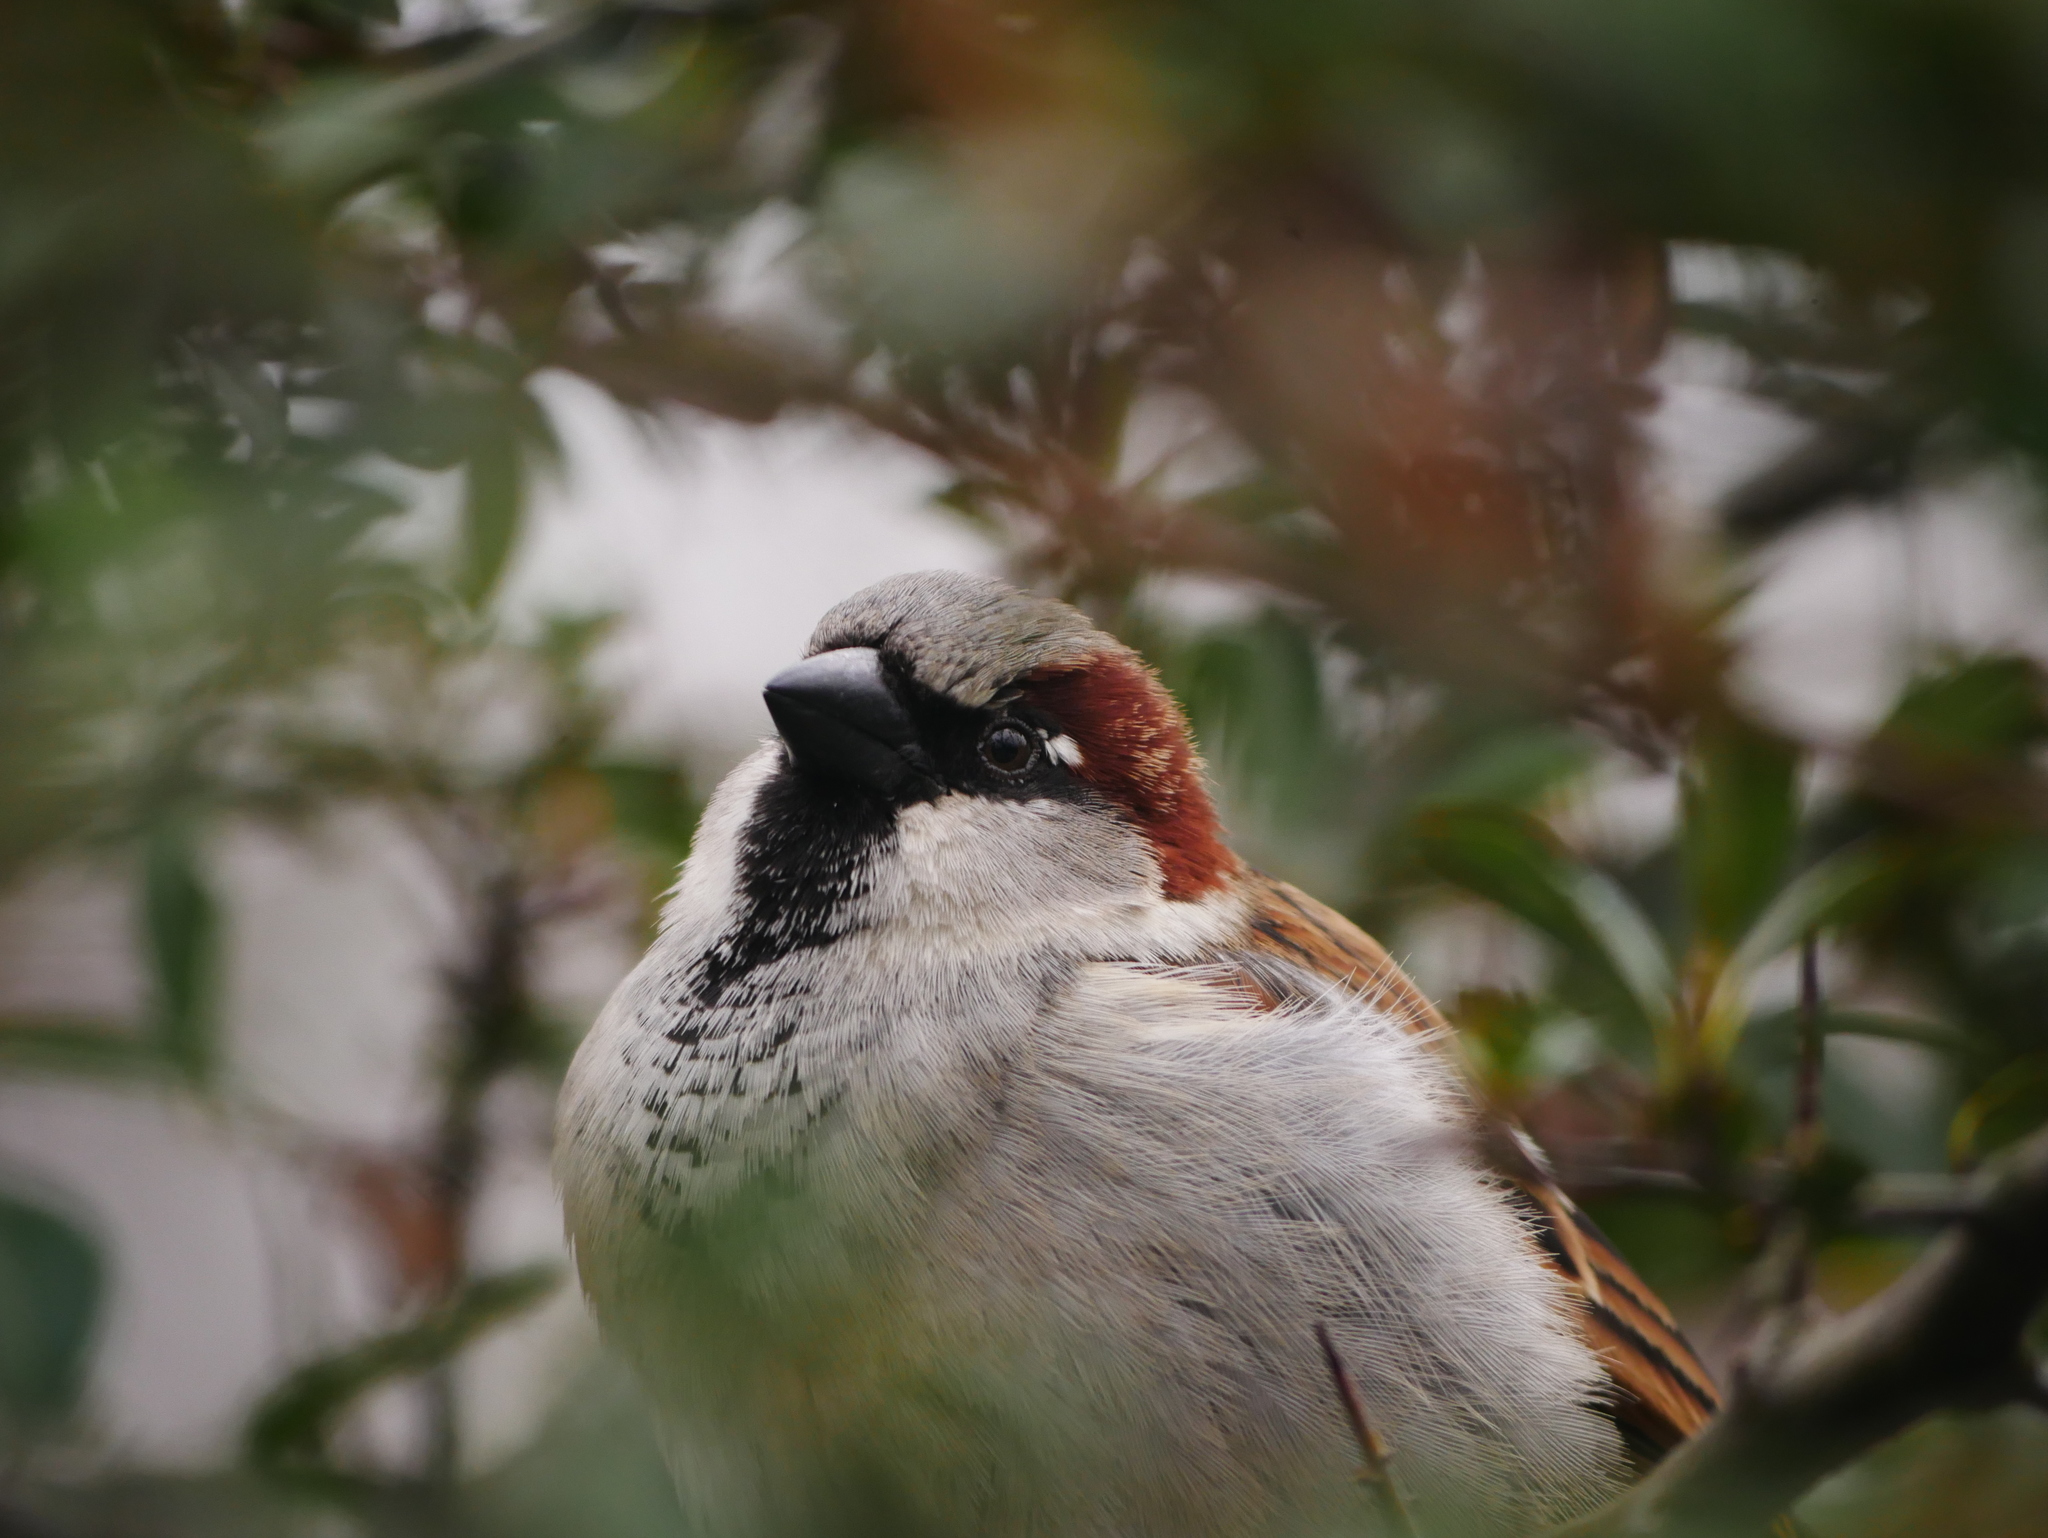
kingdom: Animalia
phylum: Chordata
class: Aves
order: Passeriformes
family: Passeridae
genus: Passer
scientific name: Passer domesticus
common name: House sparrow
